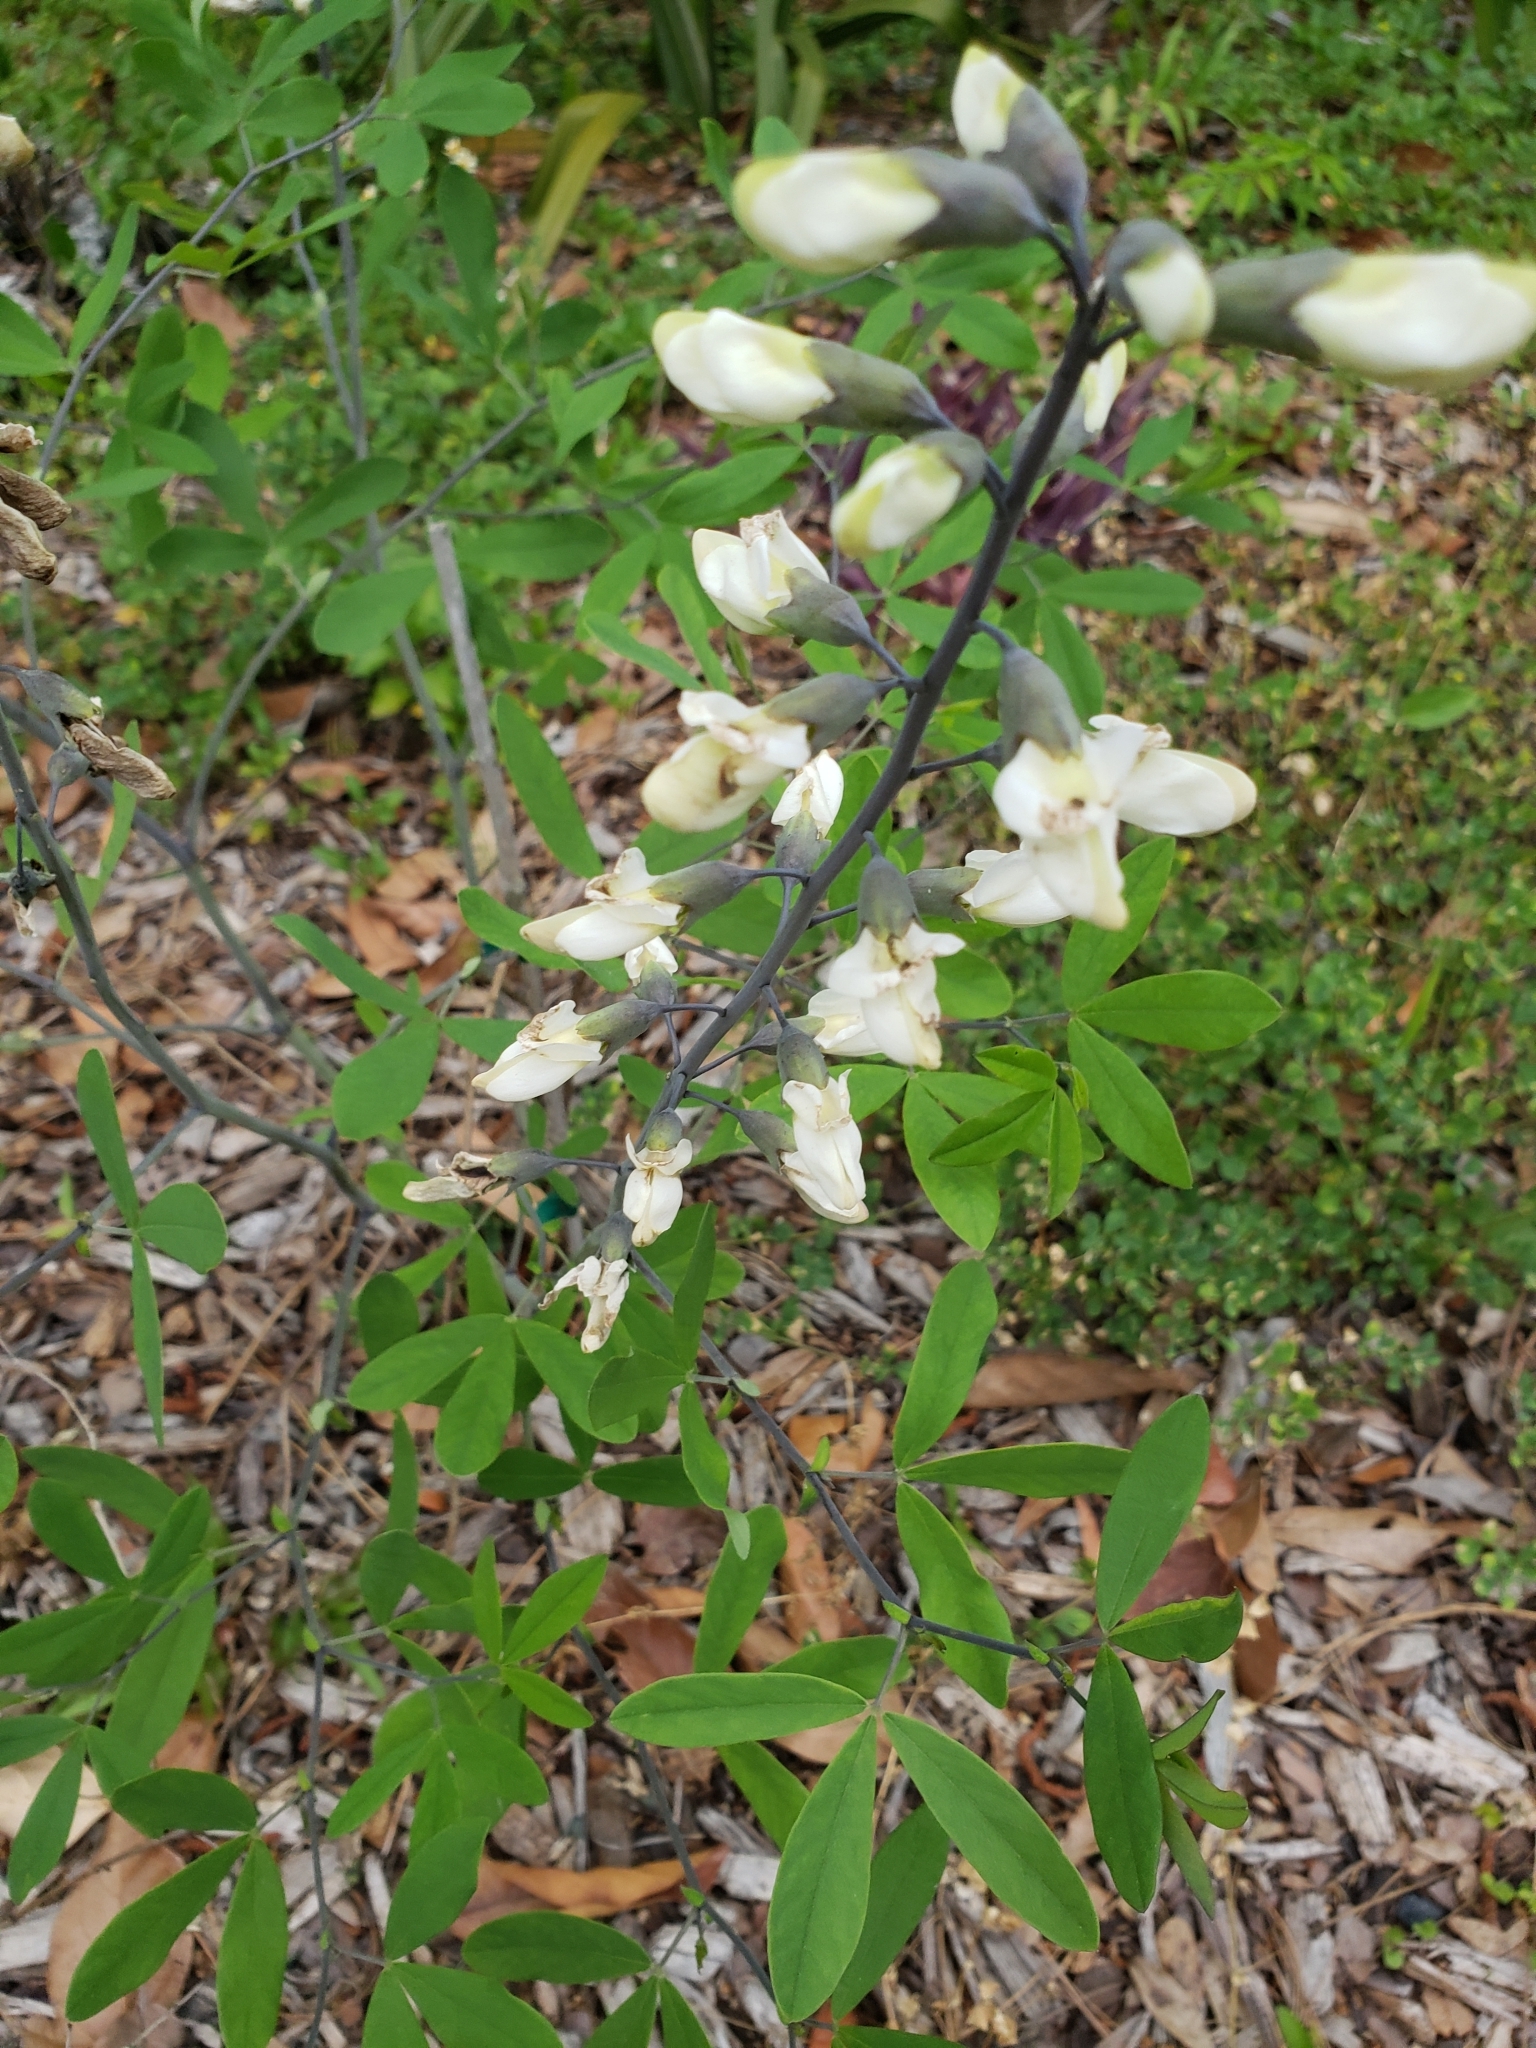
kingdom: Plantae
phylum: Tracheophyta
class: Magnoliopsida
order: Fabales
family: Fabaceae
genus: Baptisia
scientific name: Baptisia alba
